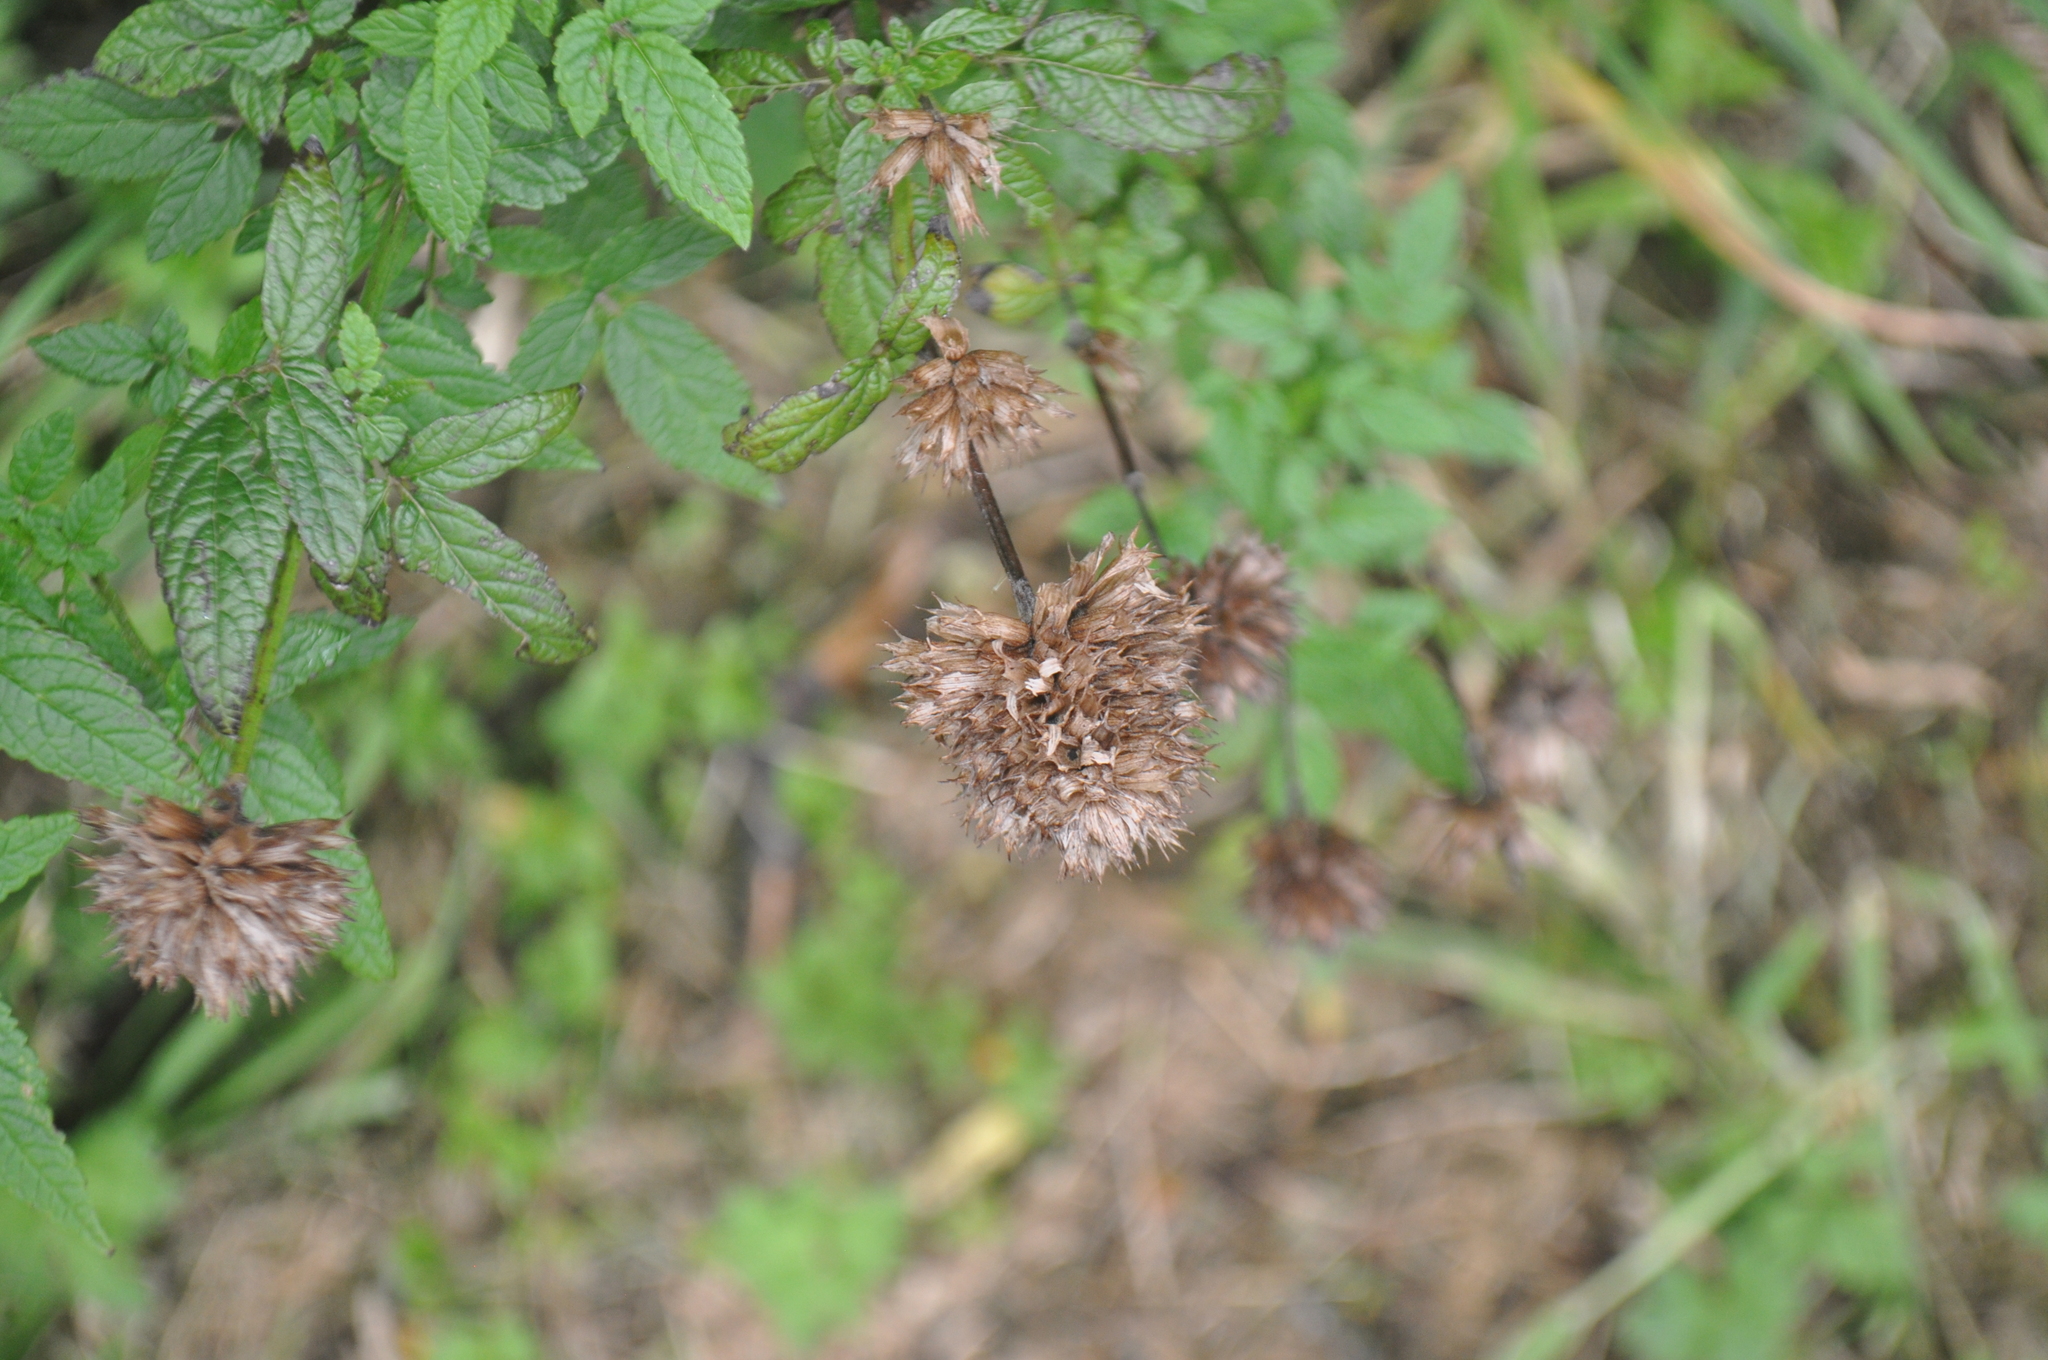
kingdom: Plantae
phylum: Tracheophyta
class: Magnoliopsida
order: Lamiales
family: Lamiaceae
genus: Cedronella
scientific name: Cedronella canariensis
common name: Canary islands balm
